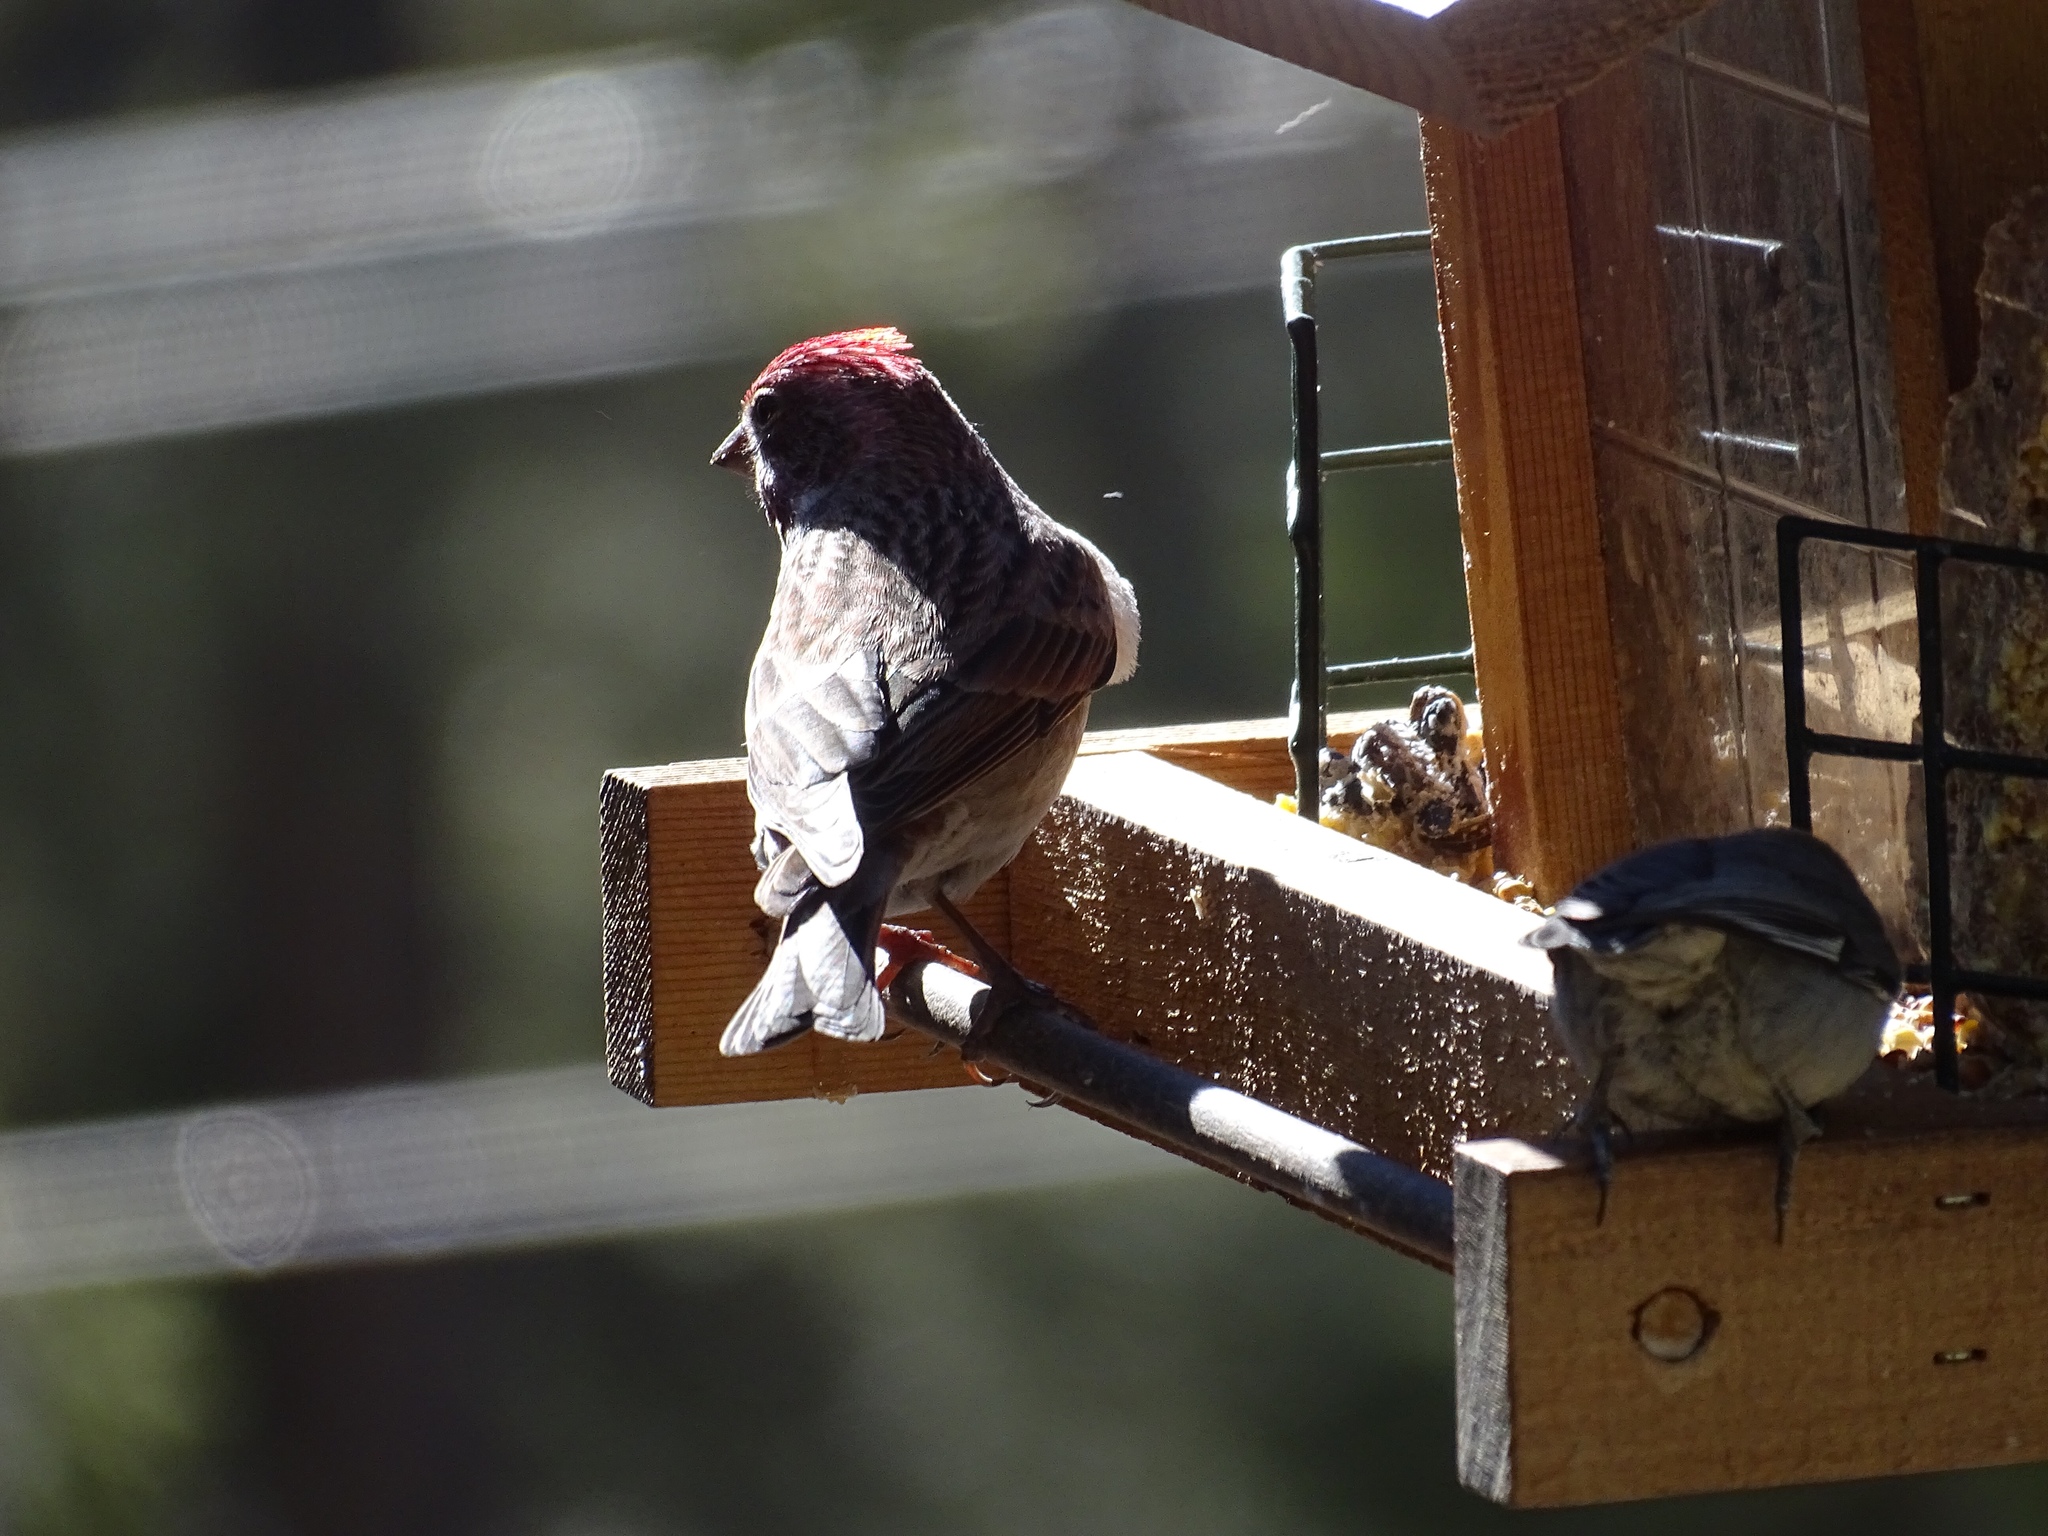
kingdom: Animalia
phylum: Chordata
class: Aves
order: Passeriformes
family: Fringillidae
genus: Haemorhous
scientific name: Haemorhous cassinii
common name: Cassin's finch
